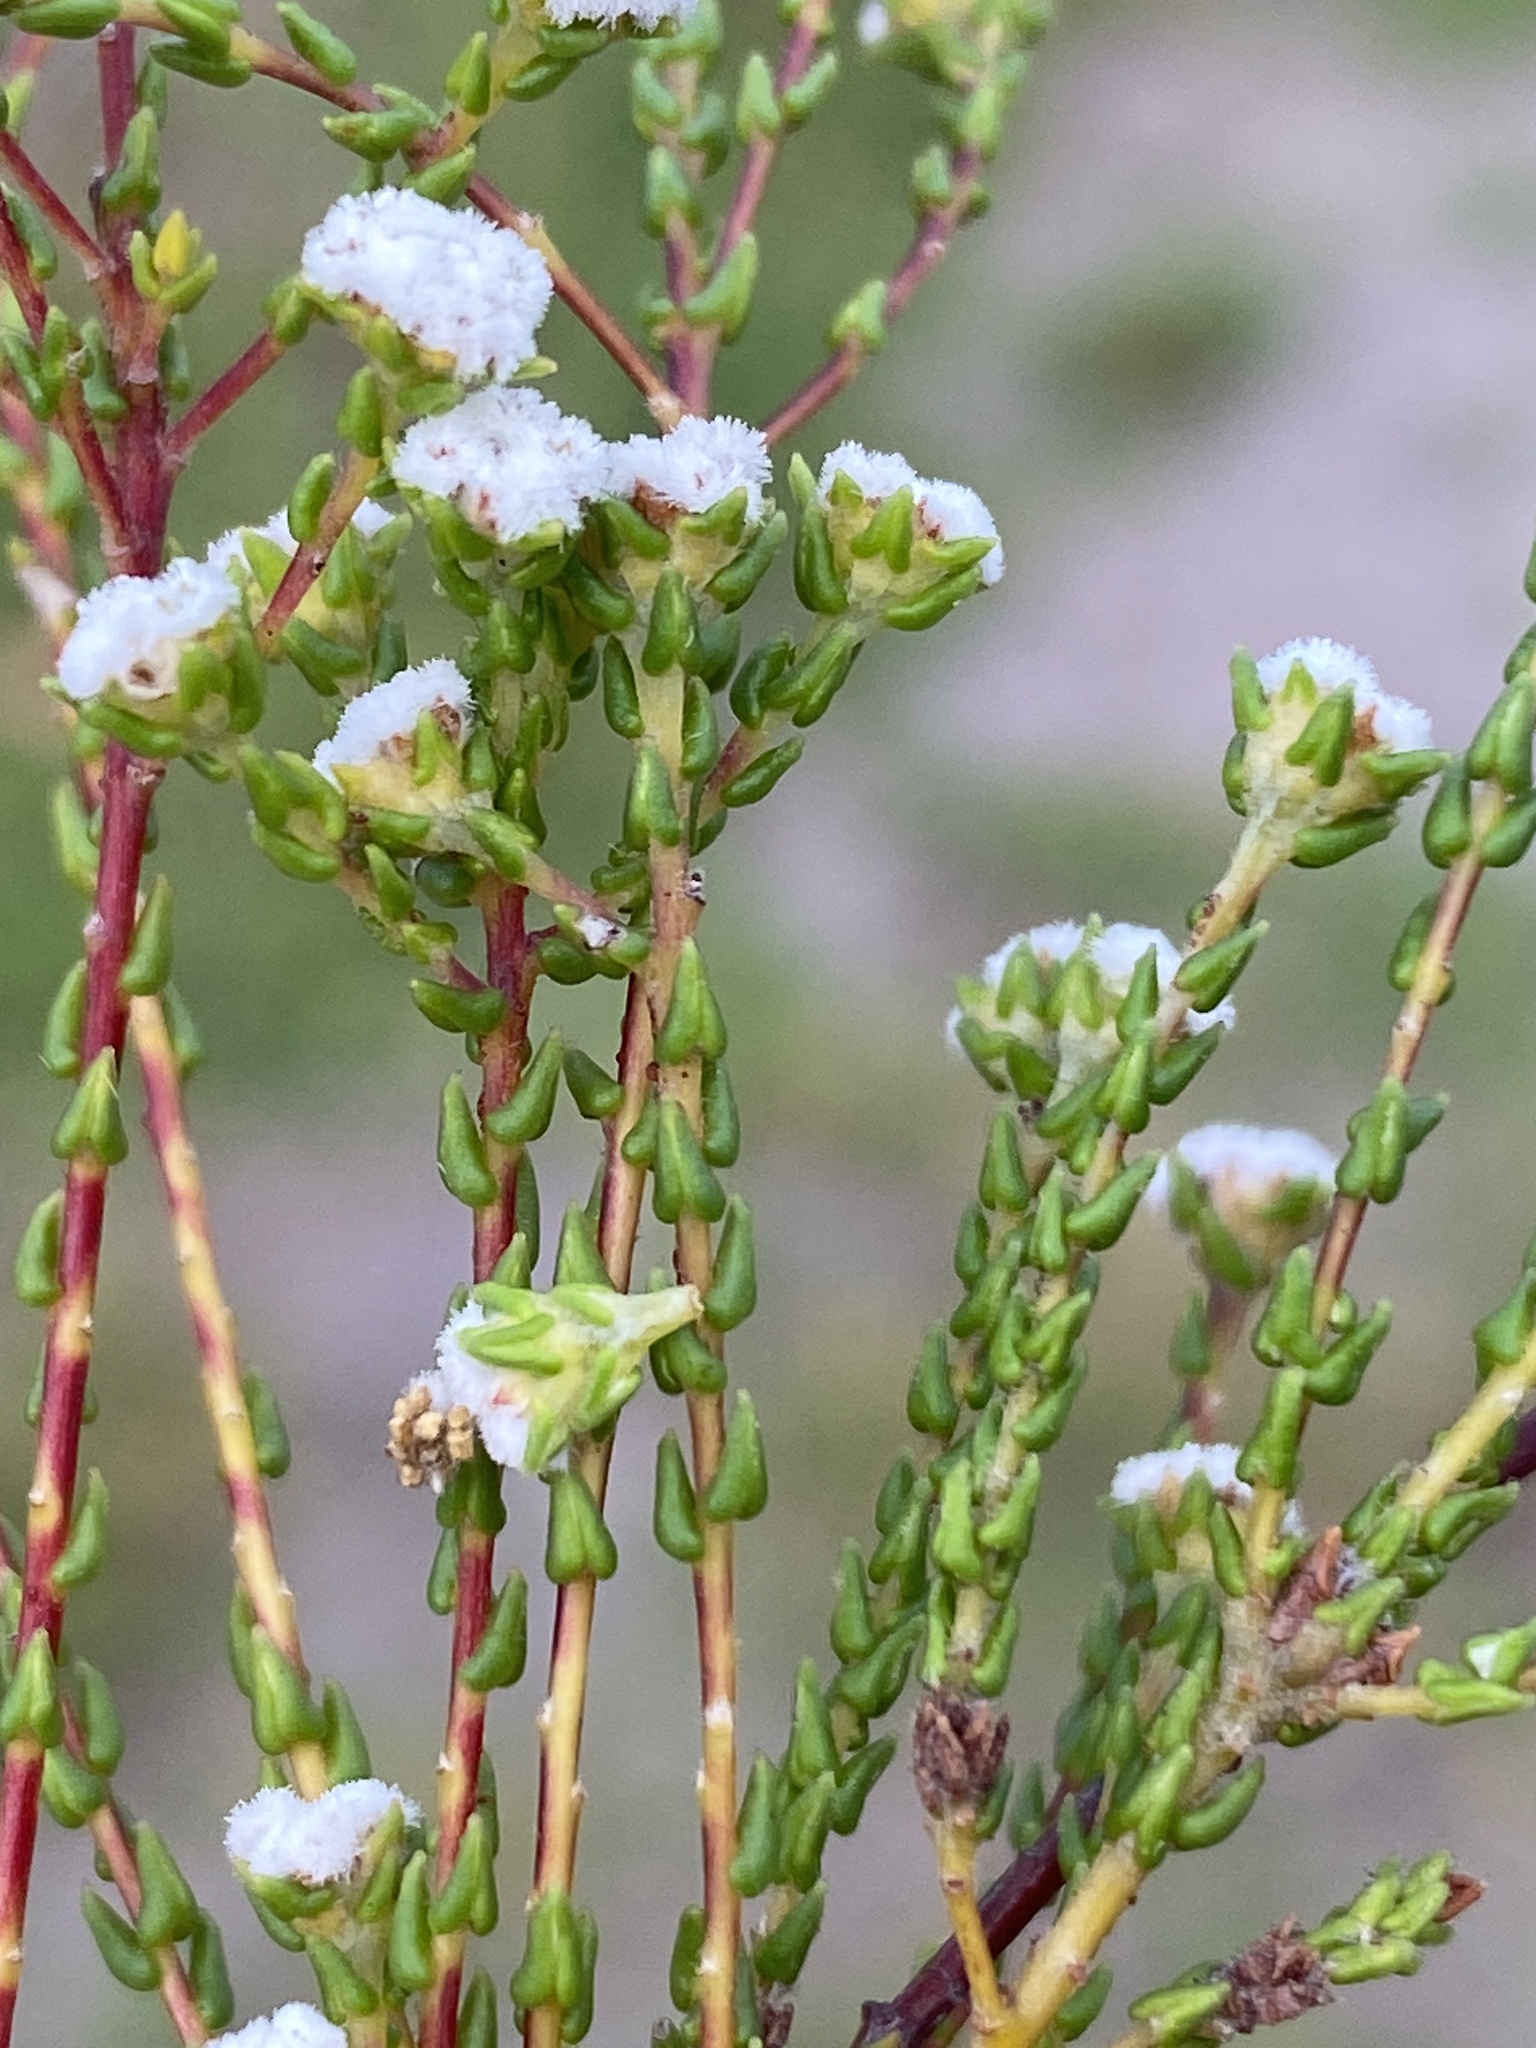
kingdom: Plantae
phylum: Tracheophyta
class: Magnoliopsida
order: Rosales
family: Rhamnaceae
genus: Phylica
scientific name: Phylica parvula
